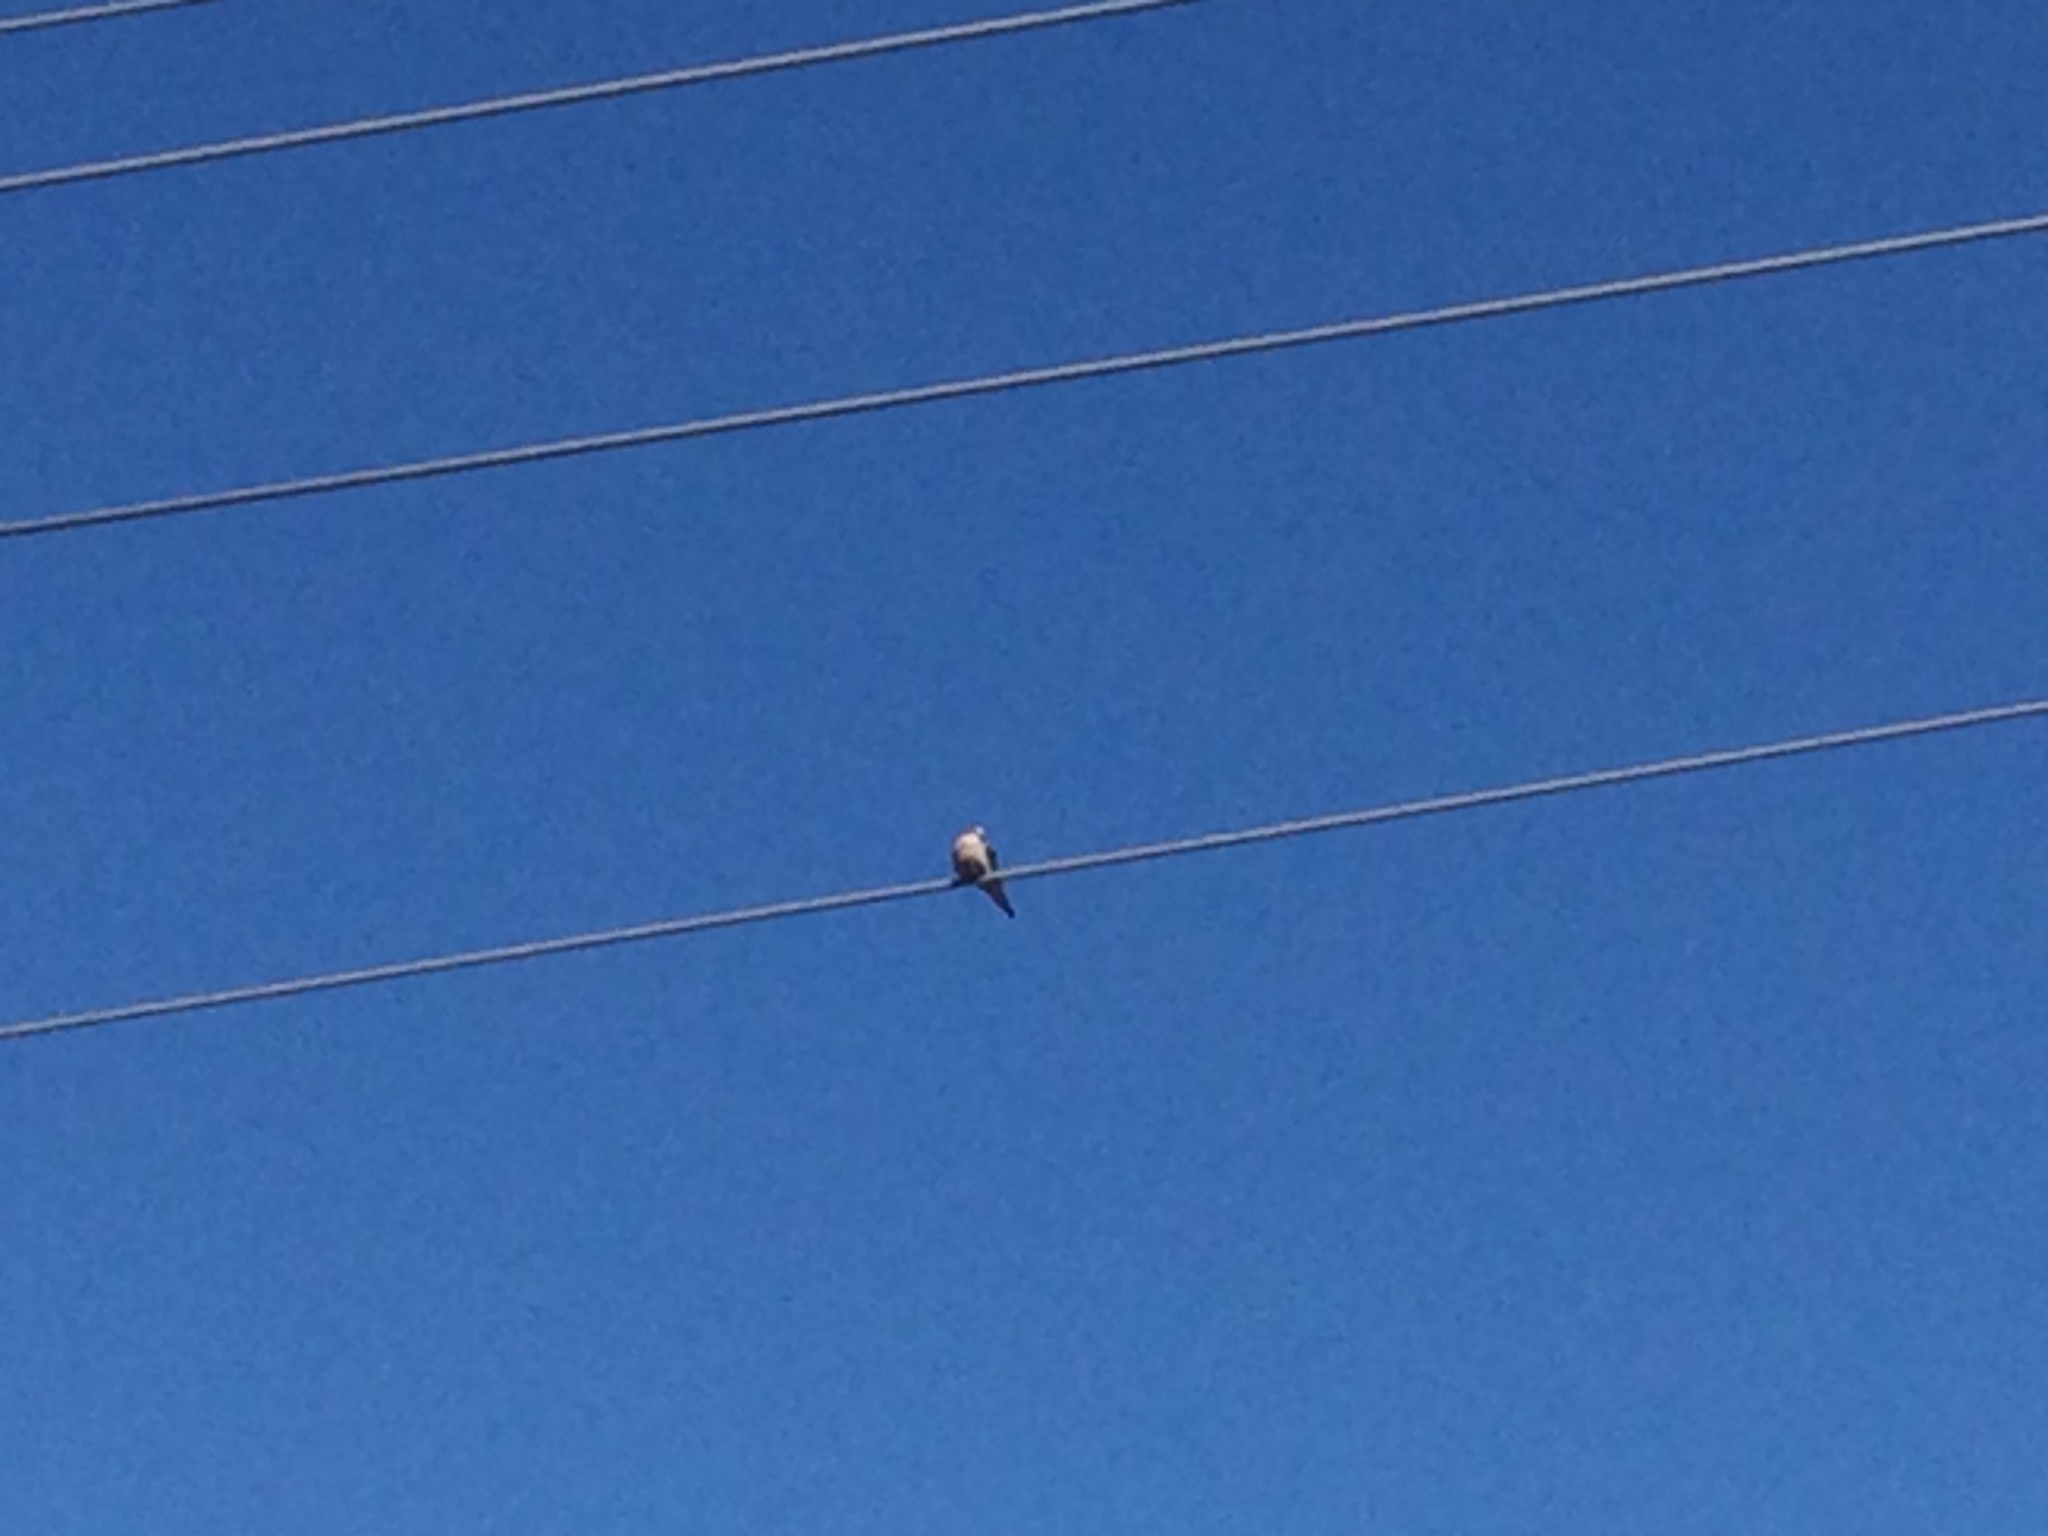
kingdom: Animalia
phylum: Chordata
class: Aves
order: Columbiformes
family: Columbidae
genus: Zenaida
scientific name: Zenaida macroura
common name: Mourning dove
